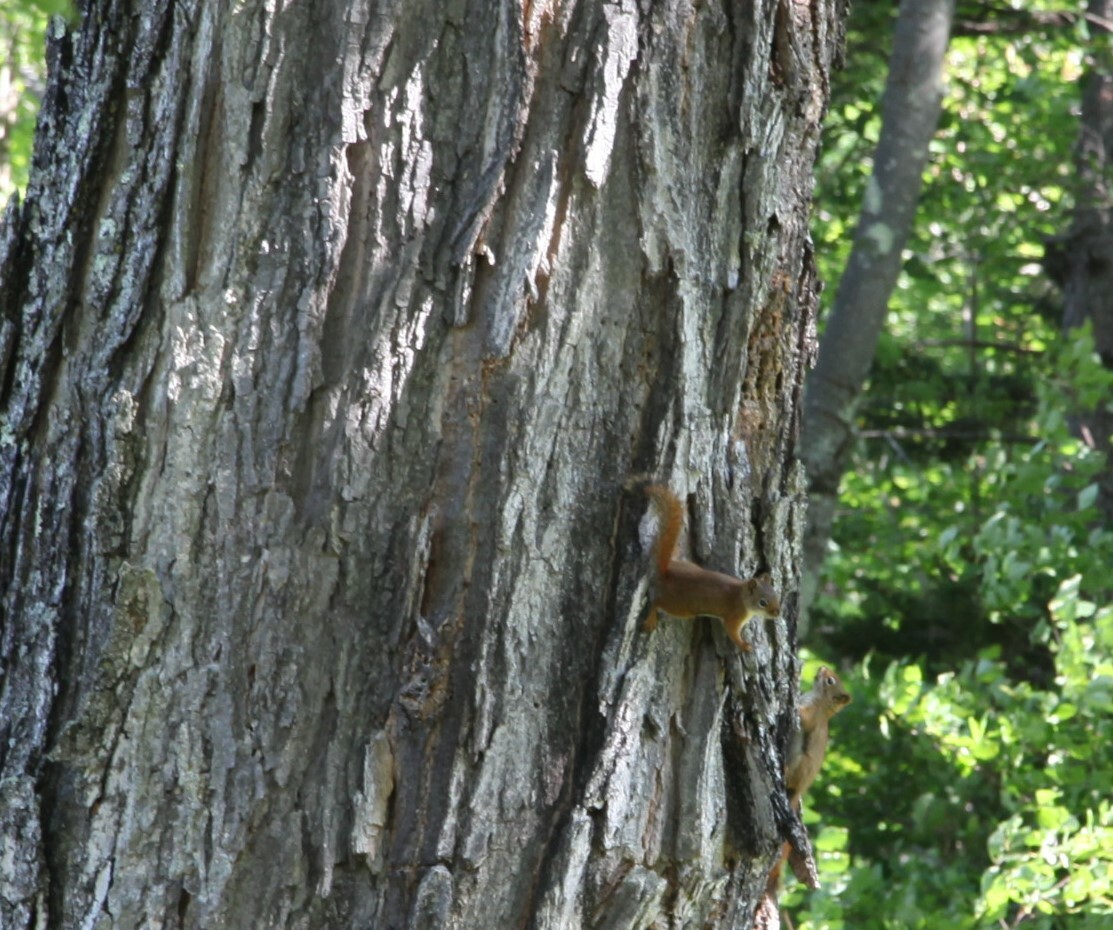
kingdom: Animalia
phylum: Chordata
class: Mammalia
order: Rodentia
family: Sciuridae
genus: Tamiasciurus
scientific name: Tamiasciurus hudsonicus
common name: Red squirrel
